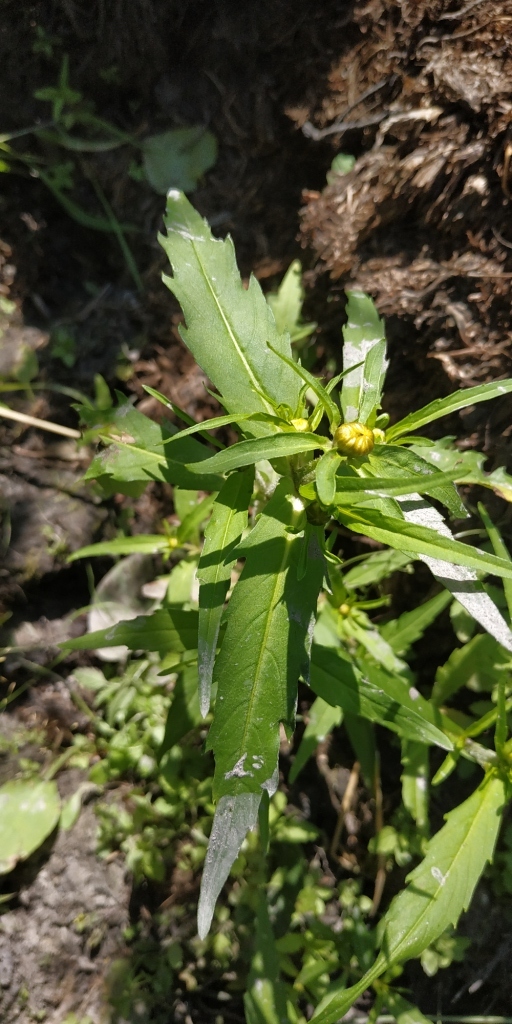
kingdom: Plantae
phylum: Tracheophyta
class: Magnoliopsida
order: Asterales
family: Asteraceae
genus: Bidens
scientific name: Bidens radiata
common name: Radiating bur-marigold
